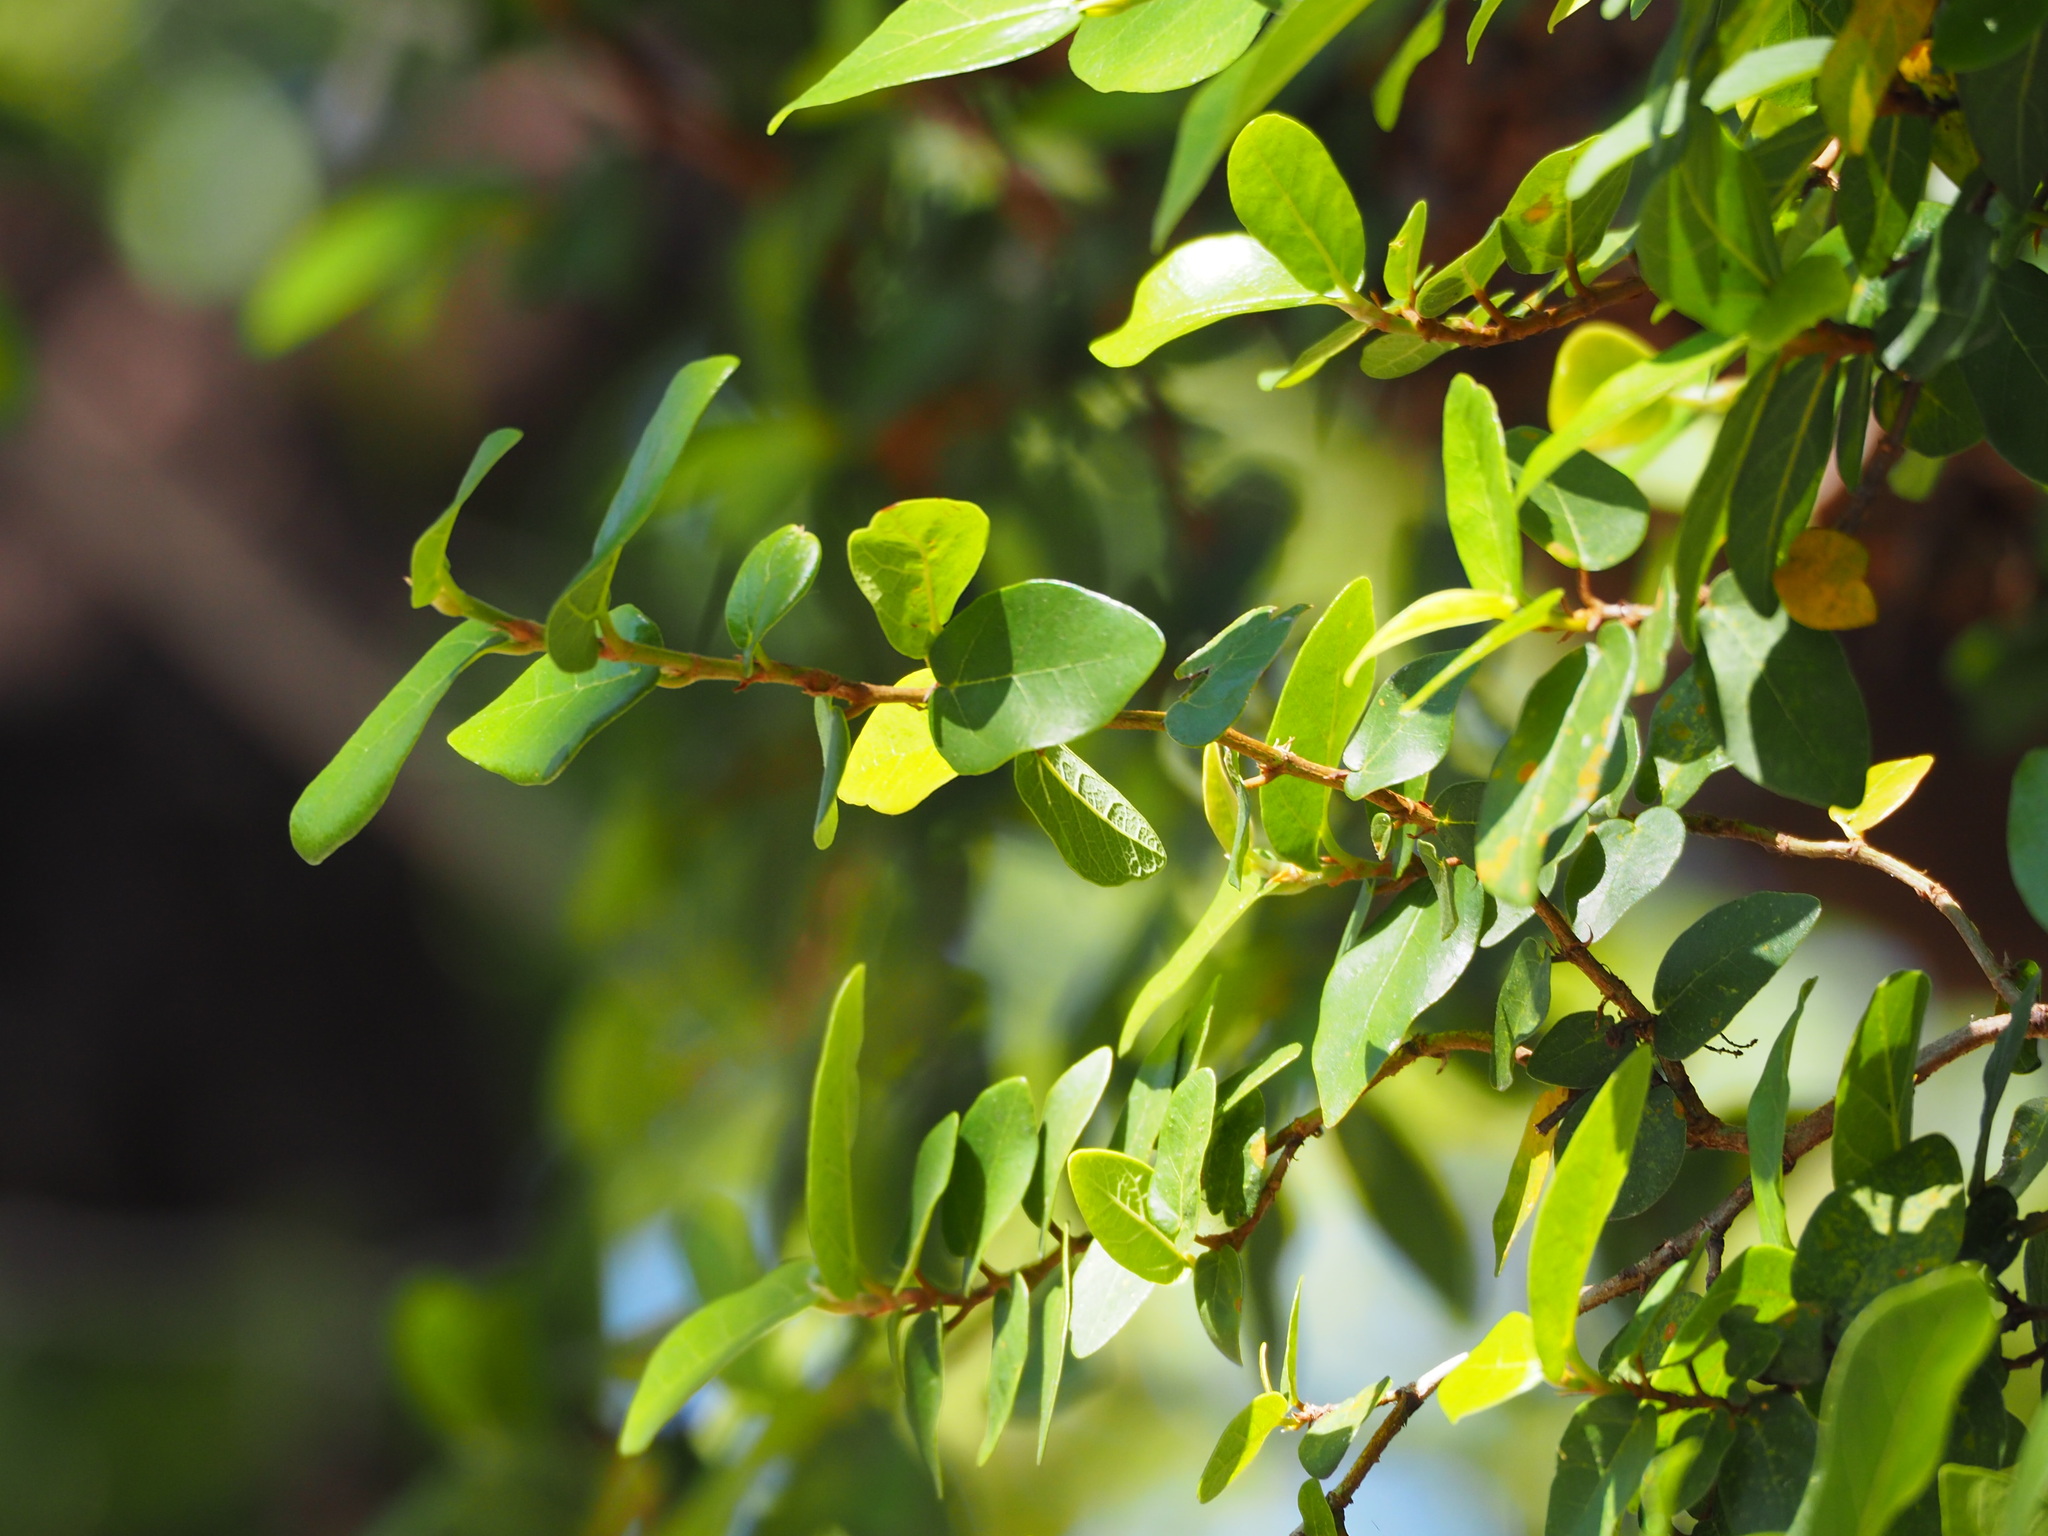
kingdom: Plantae
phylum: Tracheophyta
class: Magnoliopsida
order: Rosales
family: Moraceae
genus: Ficus
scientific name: Ficus pumila
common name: Climbingfig
